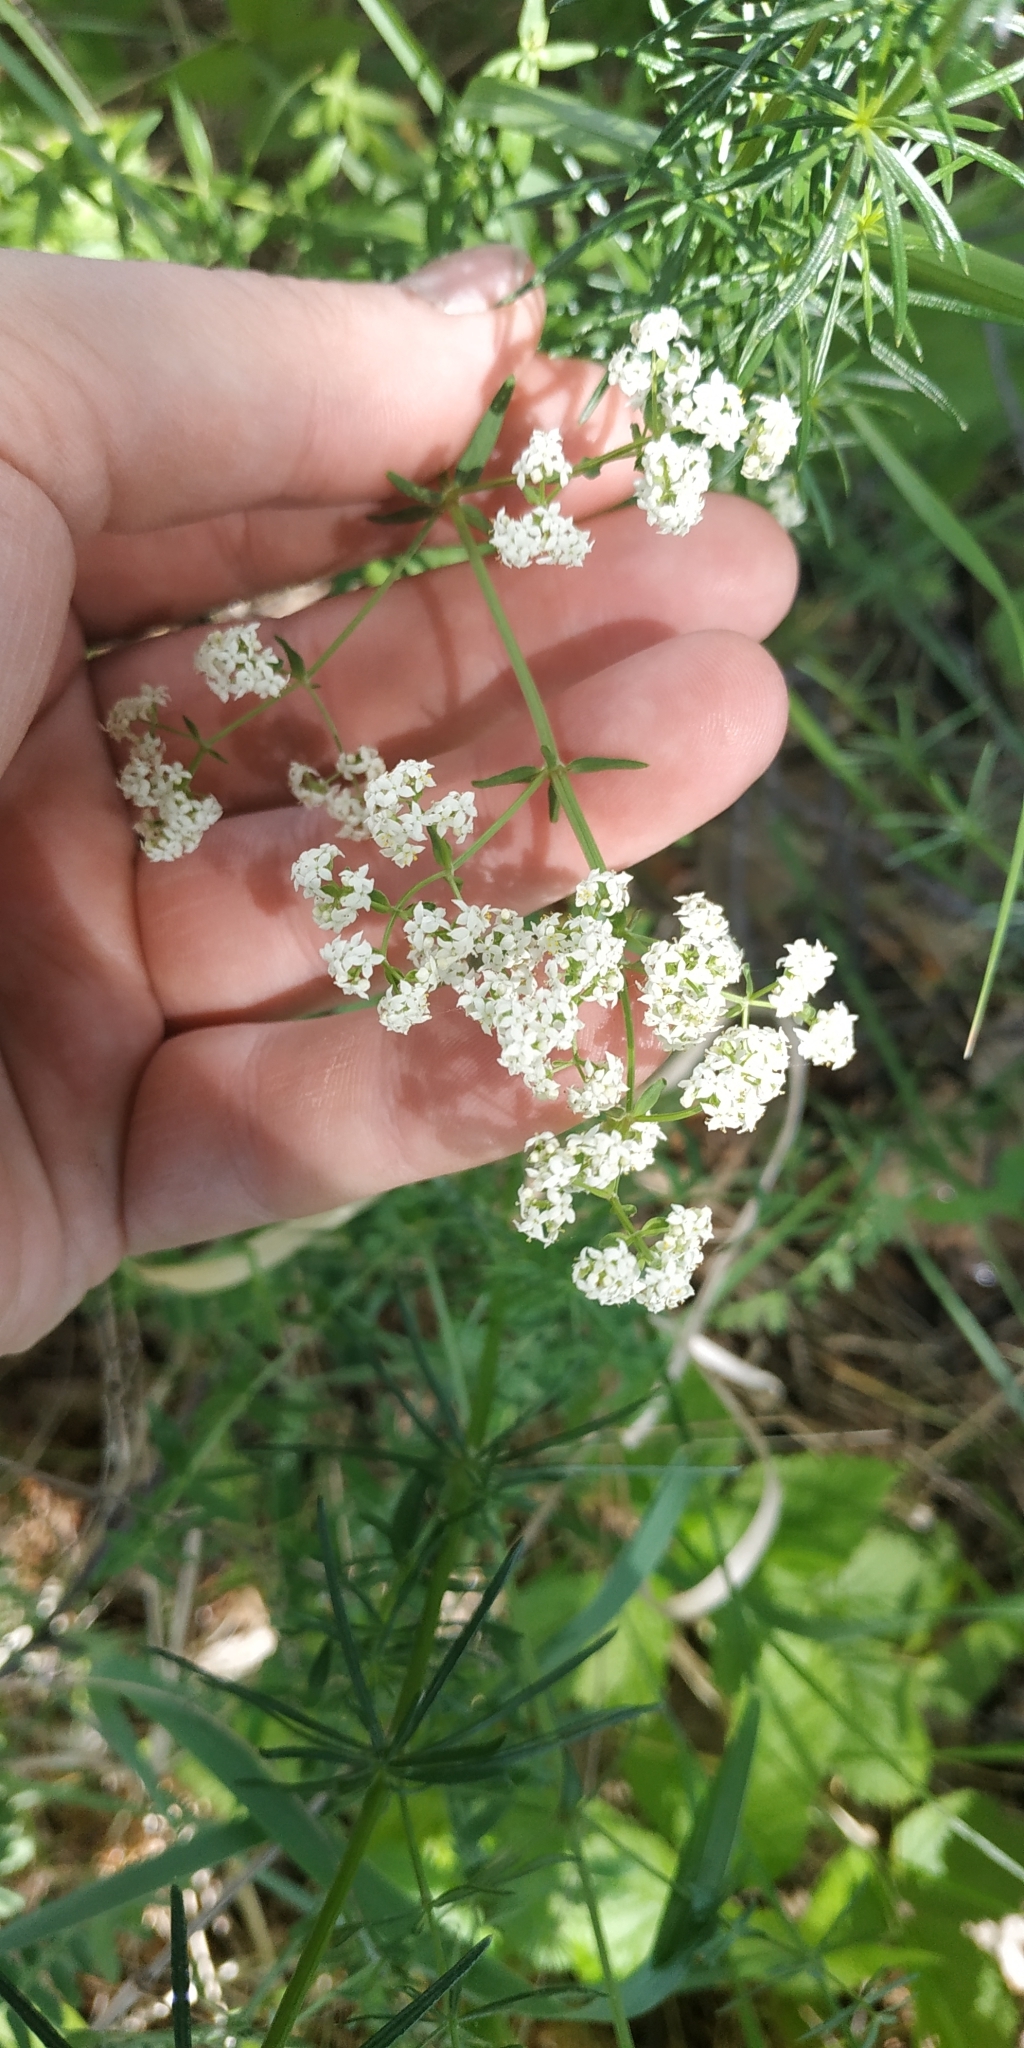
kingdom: Plantae
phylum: Tracheophyta
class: Magnoliopsida
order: Gentianales
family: Rubiaceae
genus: Galium
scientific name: Galium boreale
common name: Northern bedstraw
